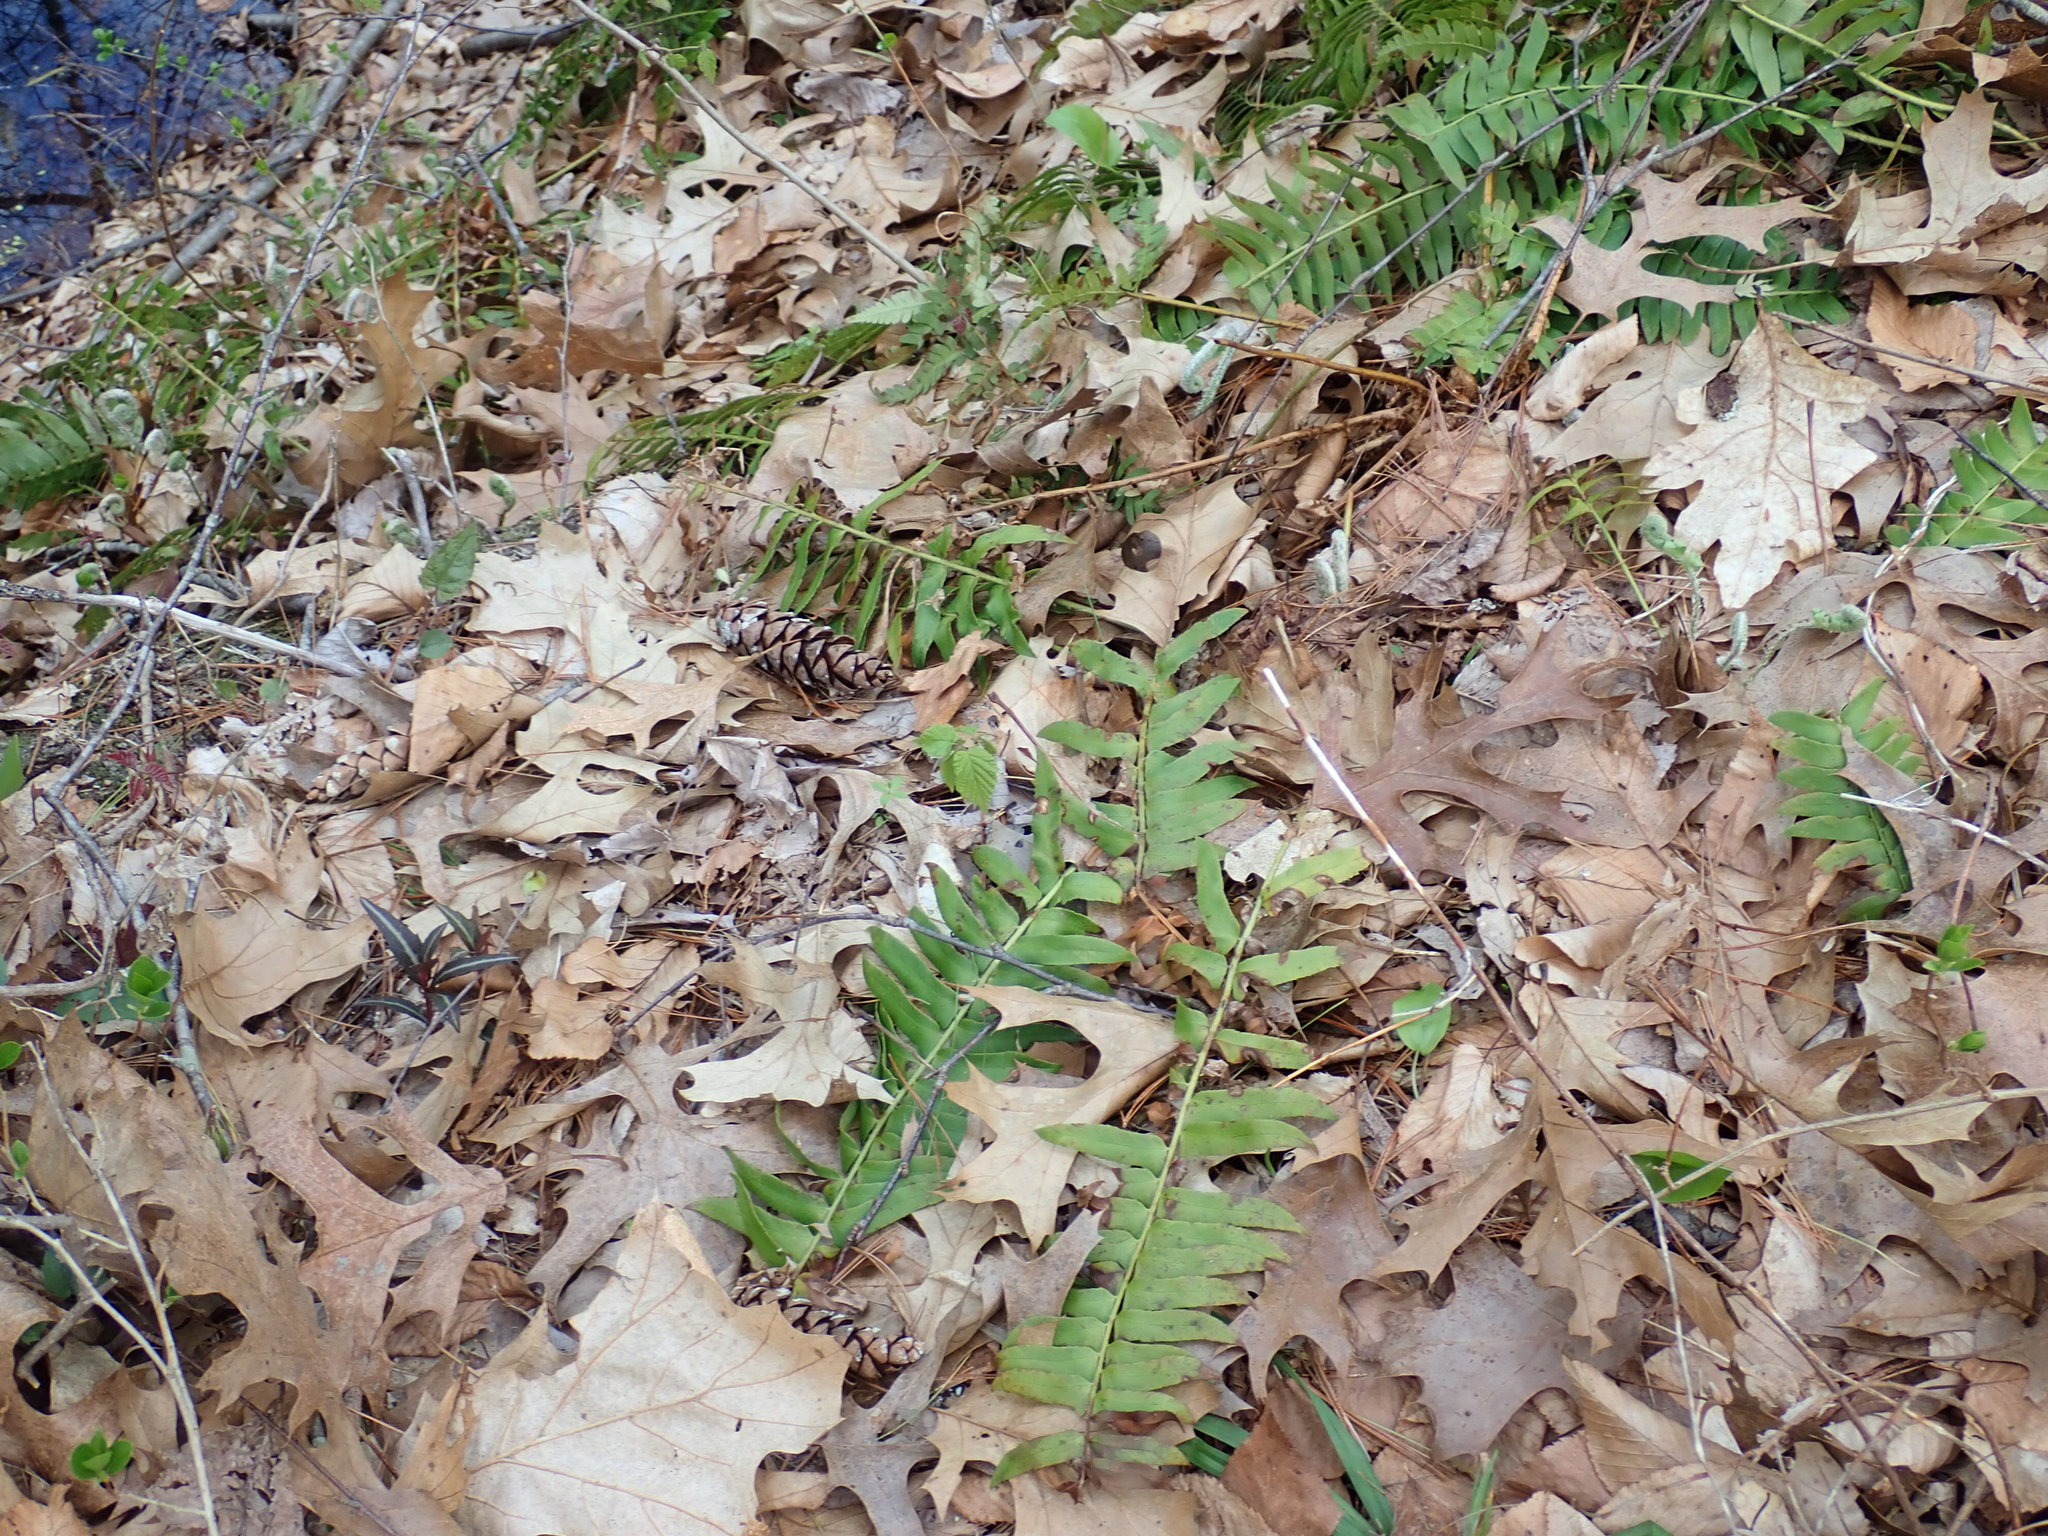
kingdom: Plantae
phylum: Tracheophyta
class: Polypodiopsida
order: Polypodiales
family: Dryopteridaceae
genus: Polystichum
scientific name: Polystichum acrostichoides
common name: Christmas fern
